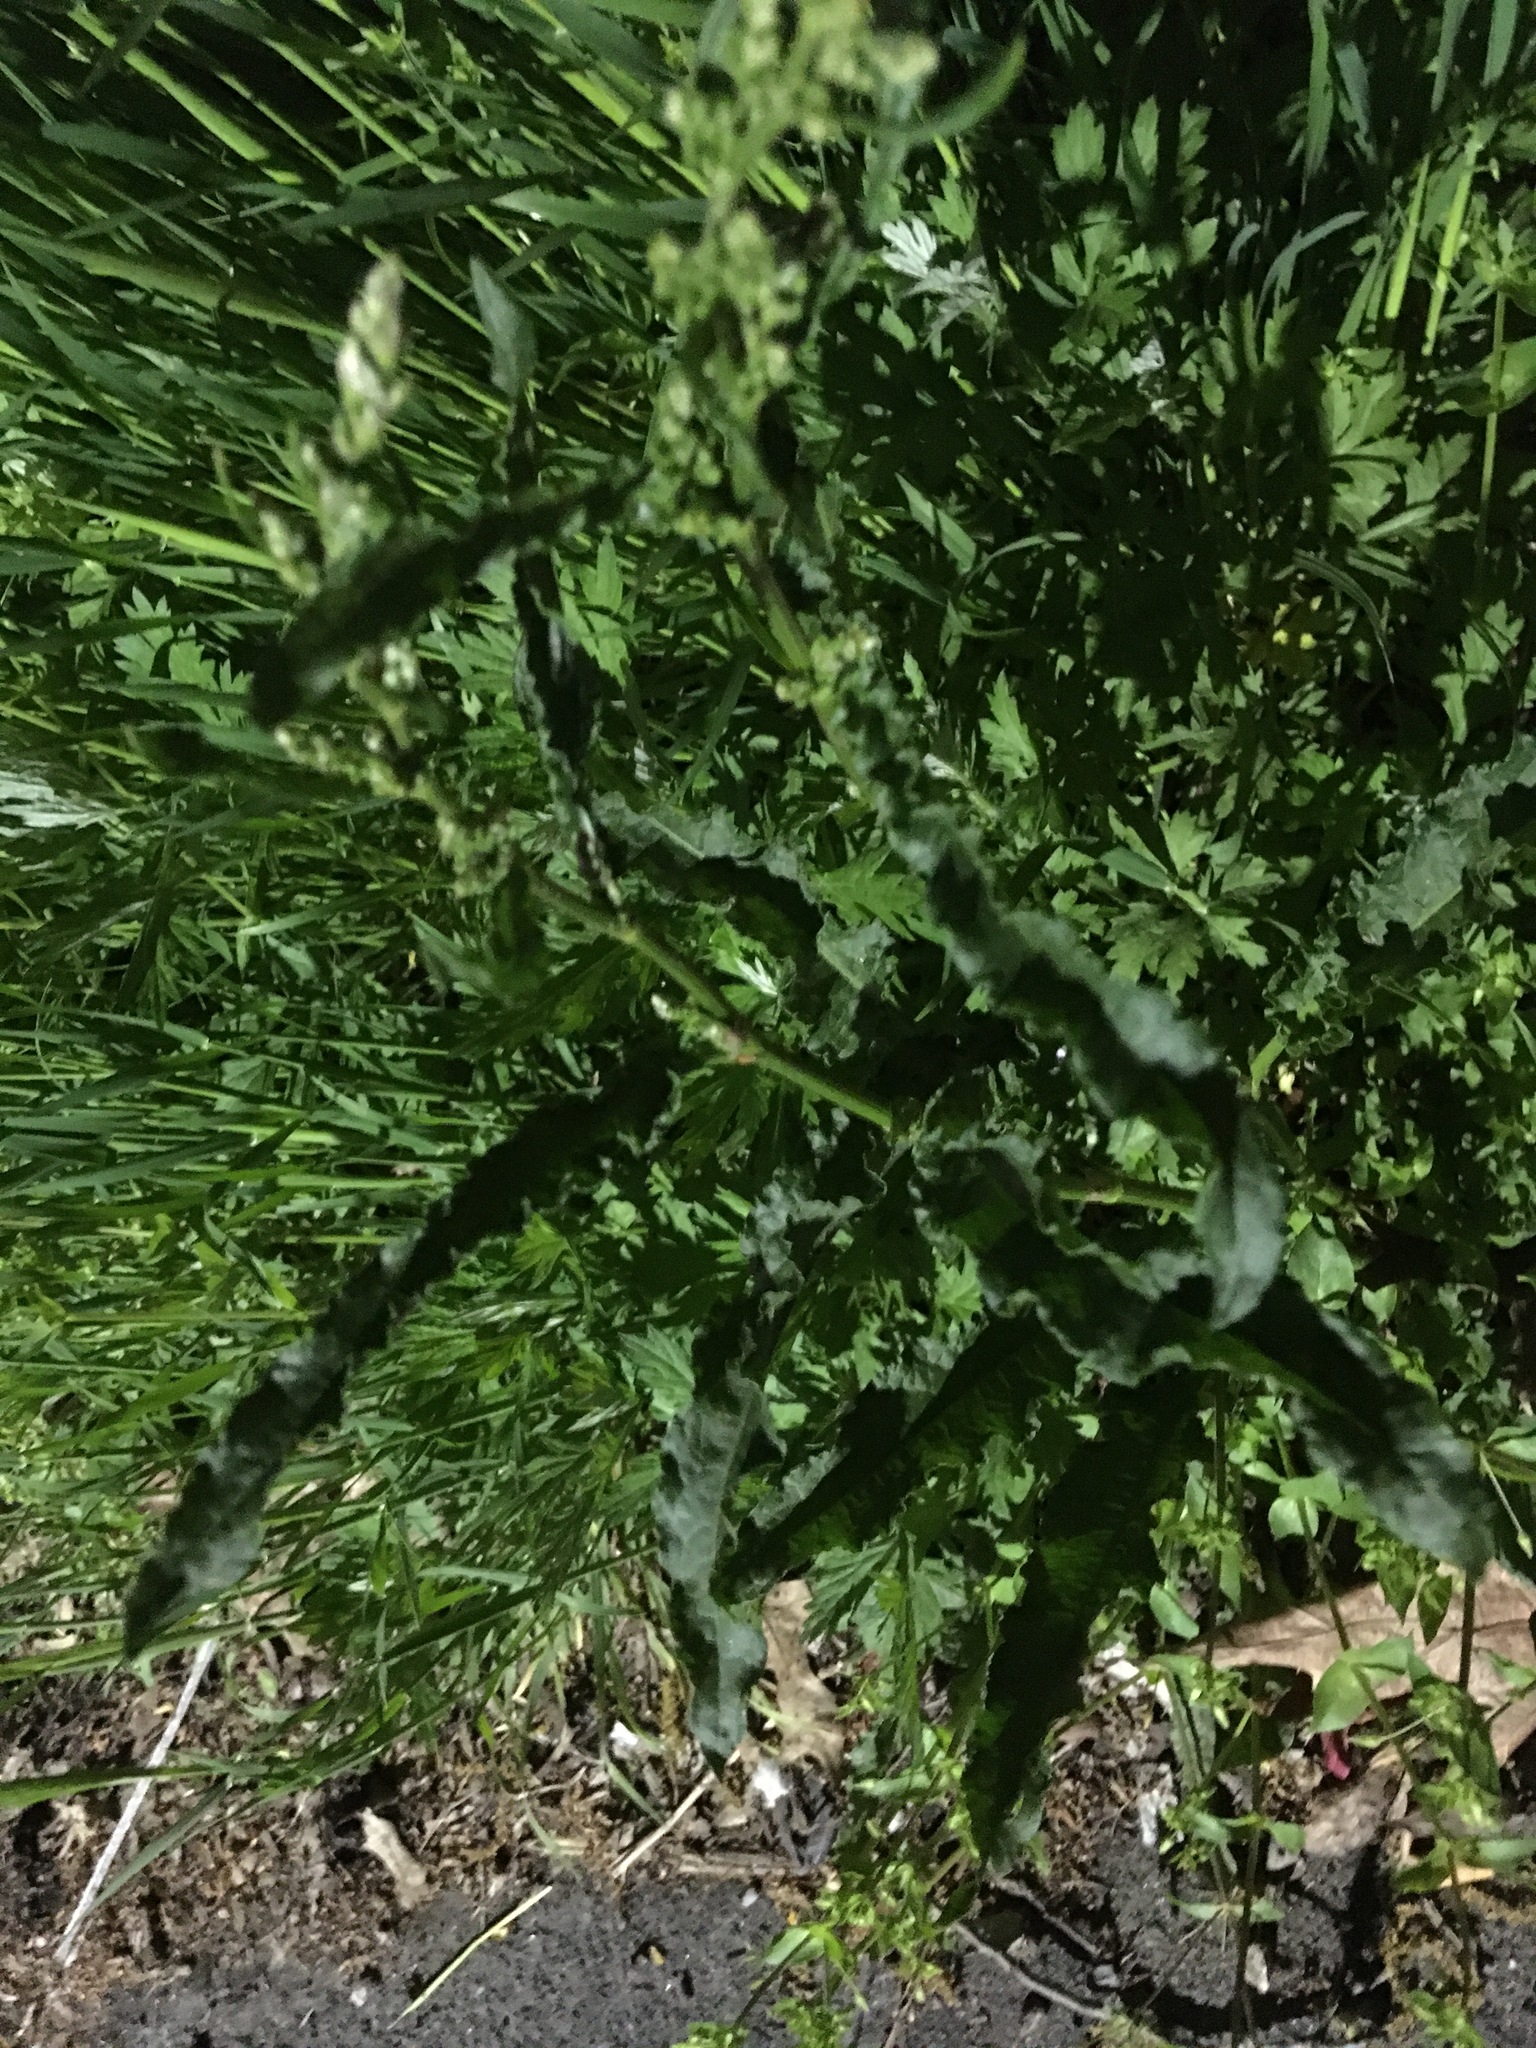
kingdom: Plantae
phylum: Tracheophyta
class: Magnoliopsida
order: Caryophyllales
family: Polygonaceae
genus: Rumex
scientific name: Rumex crispus
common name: Curled dock
